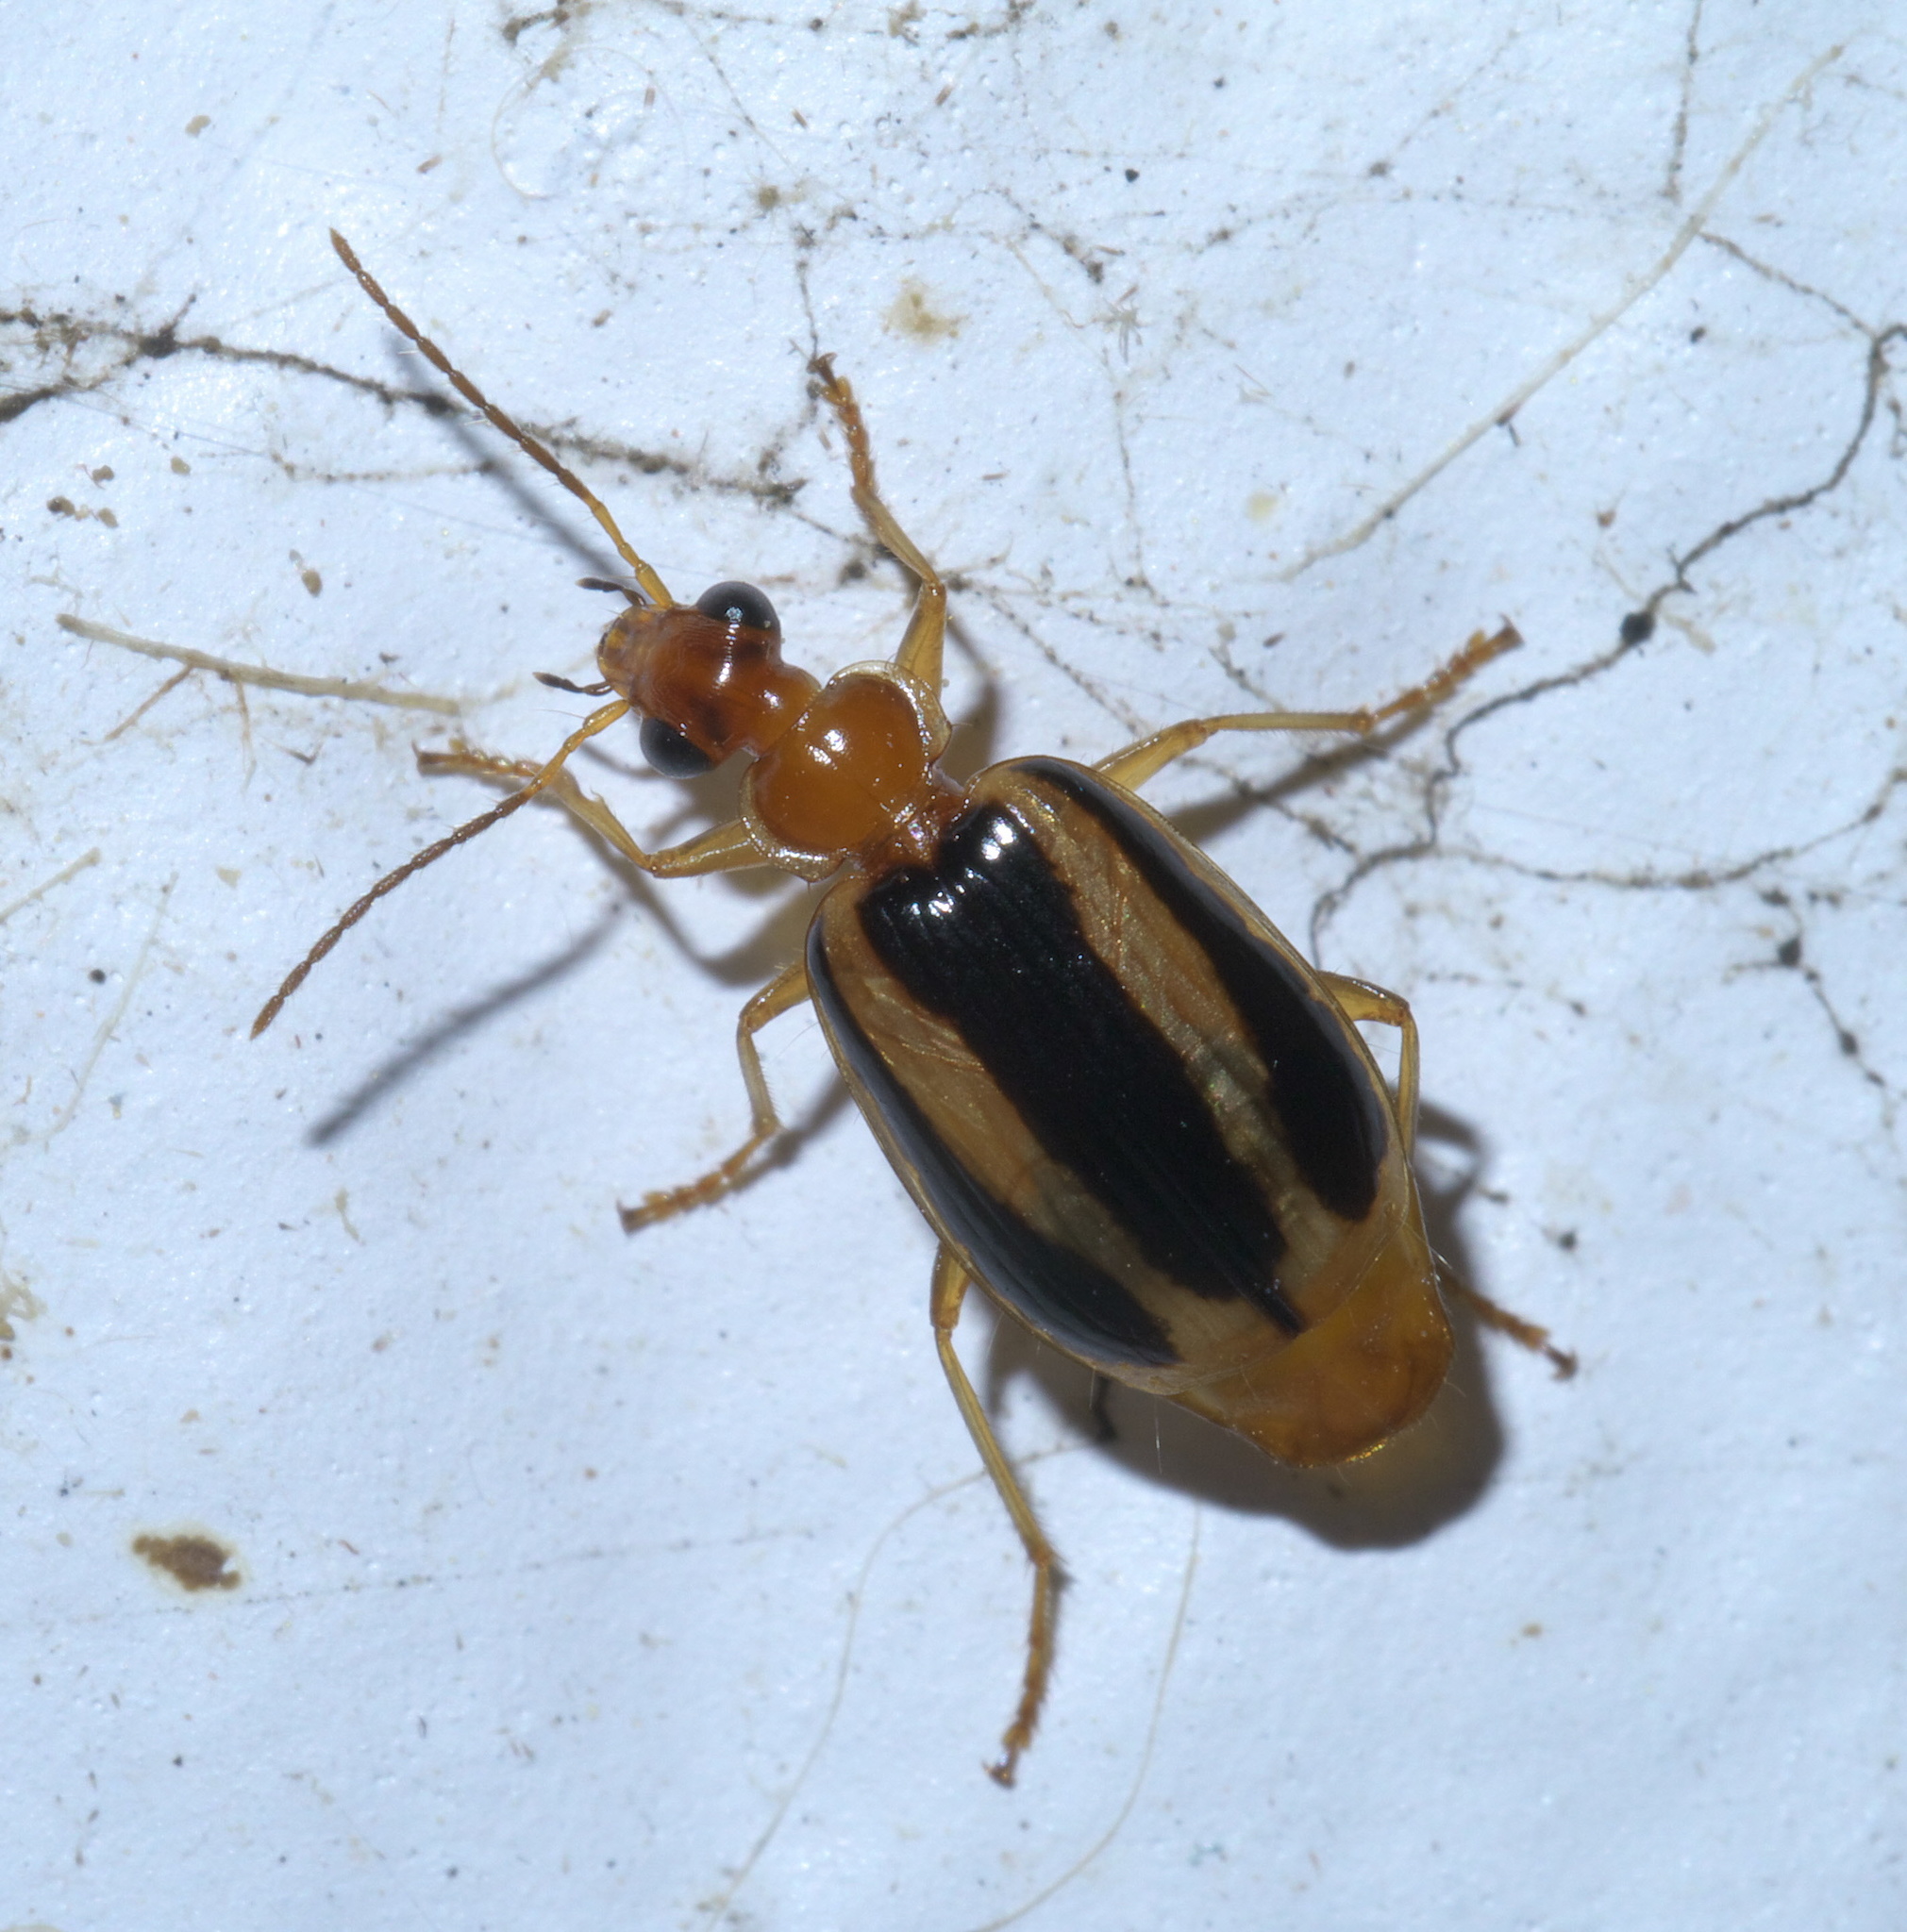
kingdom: Animalia
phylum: Arthropoda
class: Insecta
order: Coleoptera
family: Carabidae
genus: Lebia
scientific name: Lebia solea
